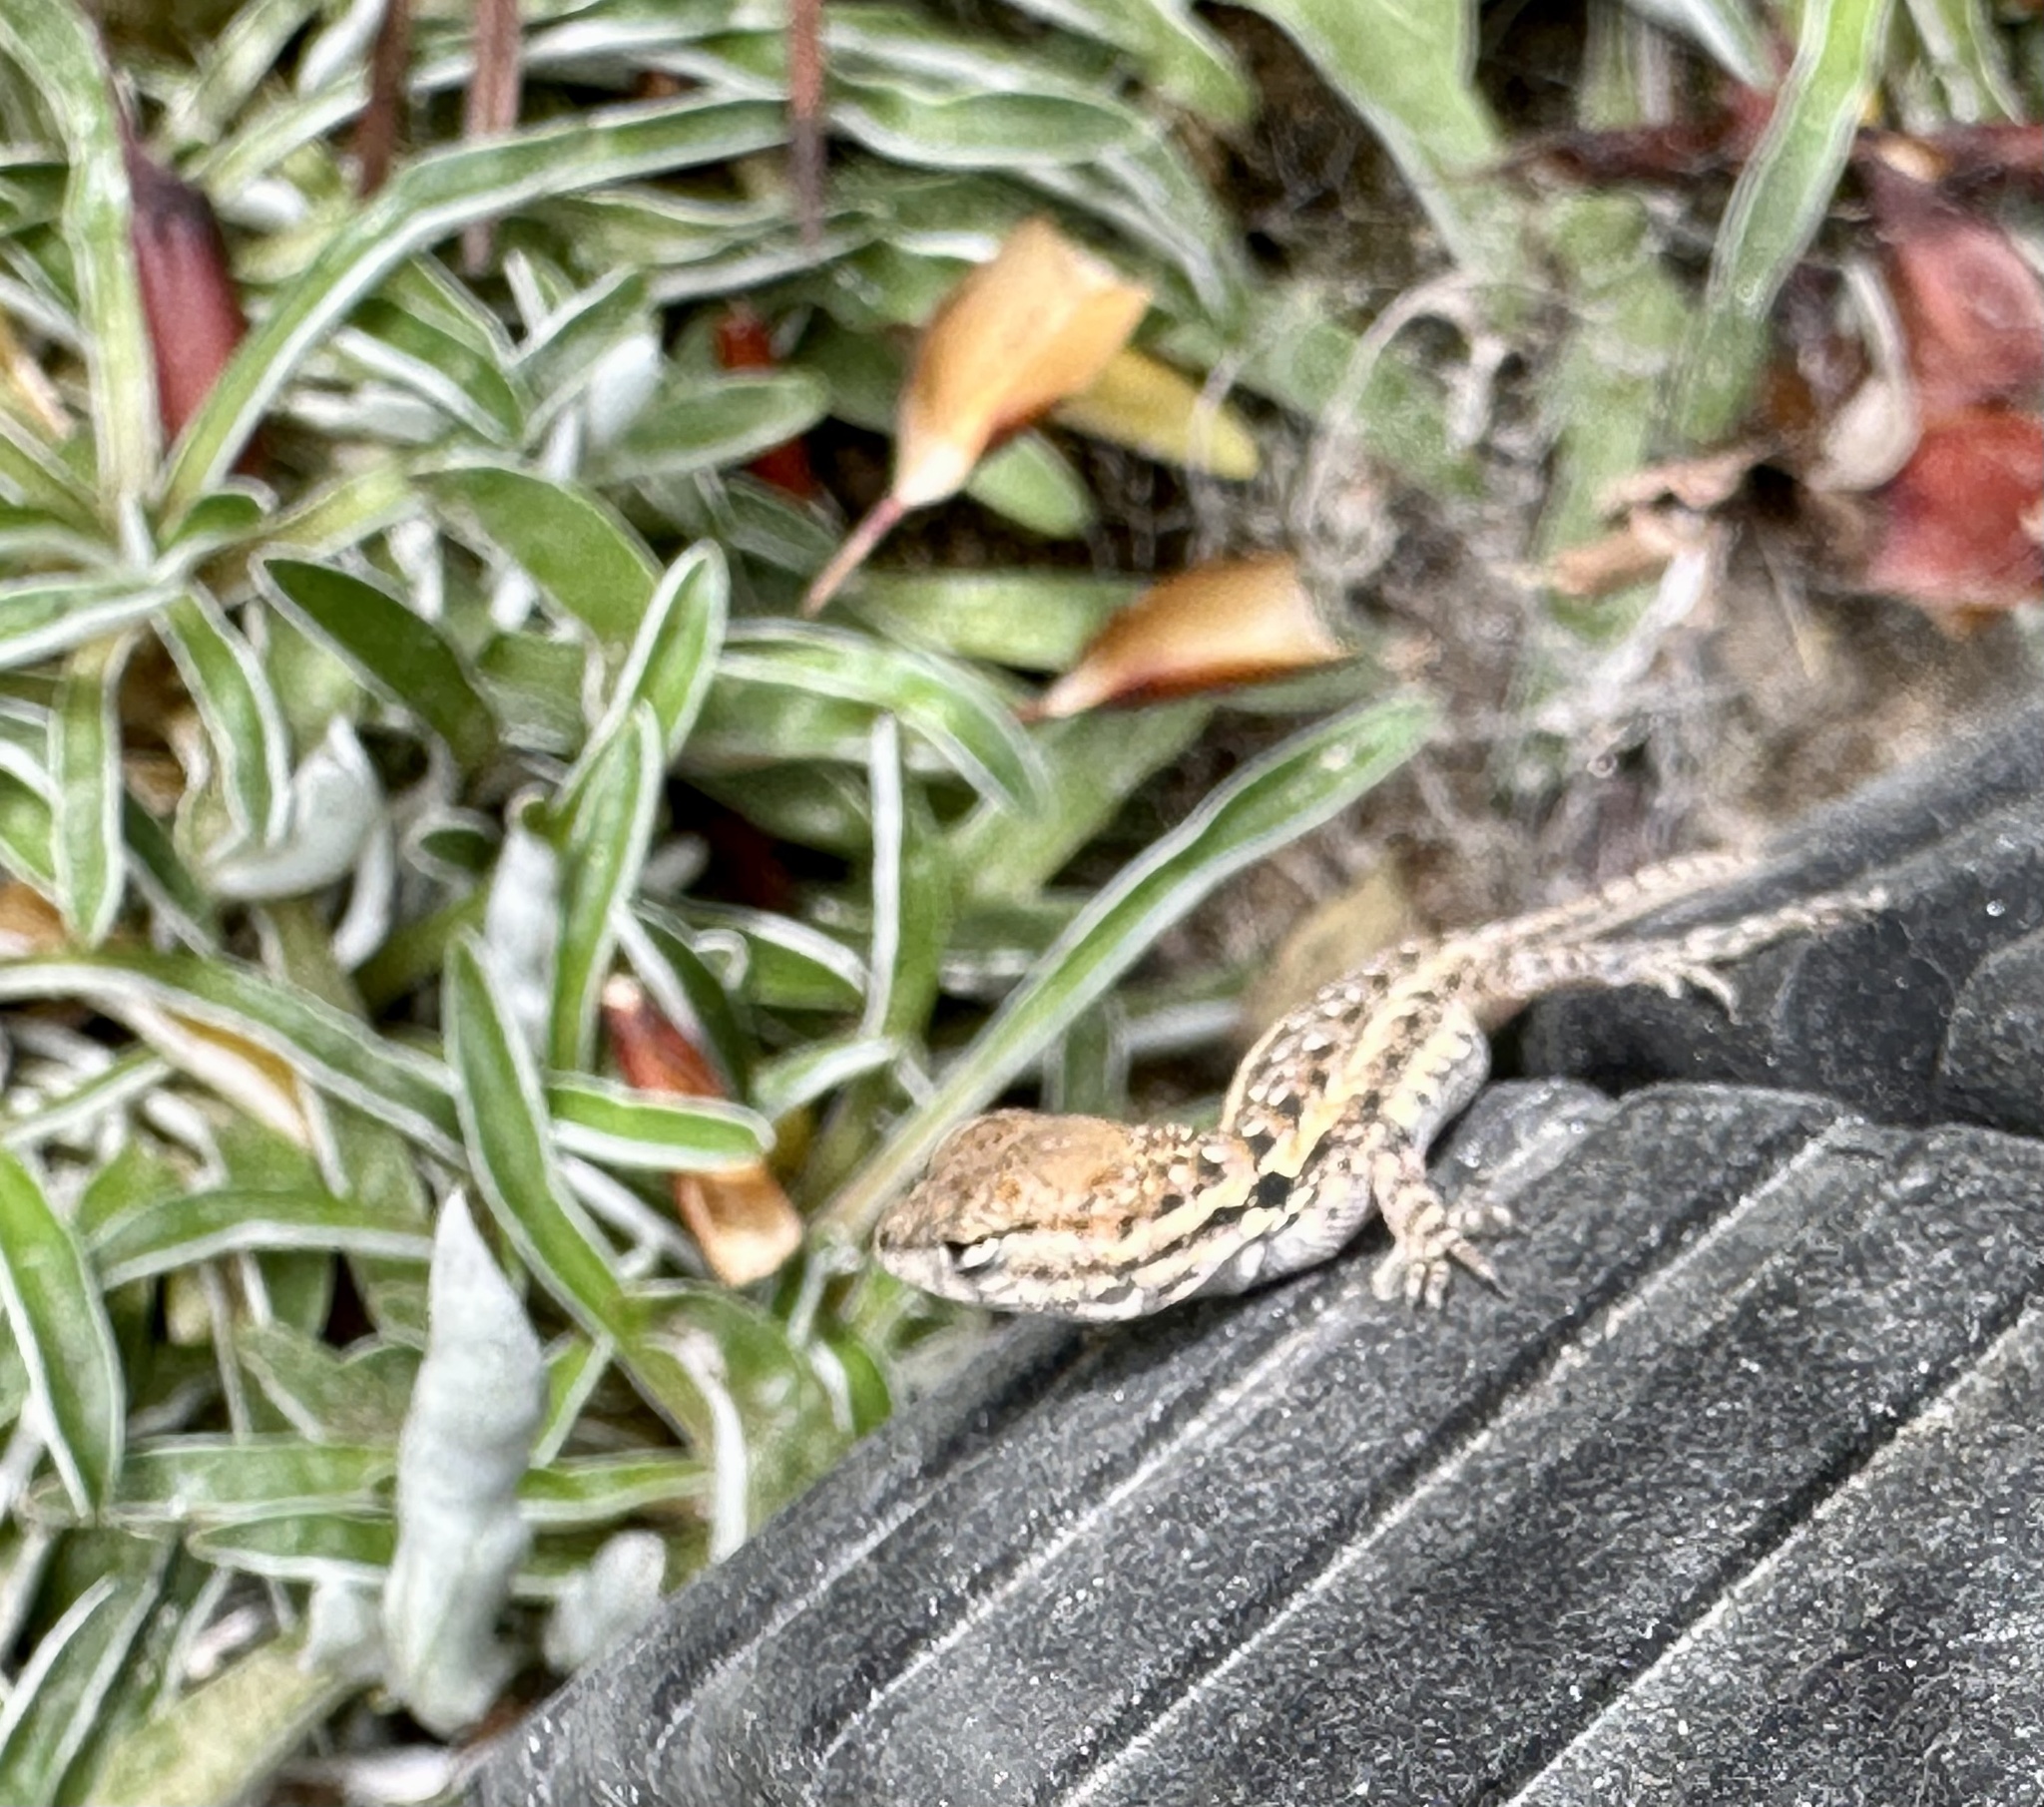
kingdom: Animalia
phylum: Chordata
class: Squamata
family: Phrynosomatidae
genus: Uta
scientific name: Uta stansburiana
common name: Side-blotched lizard
